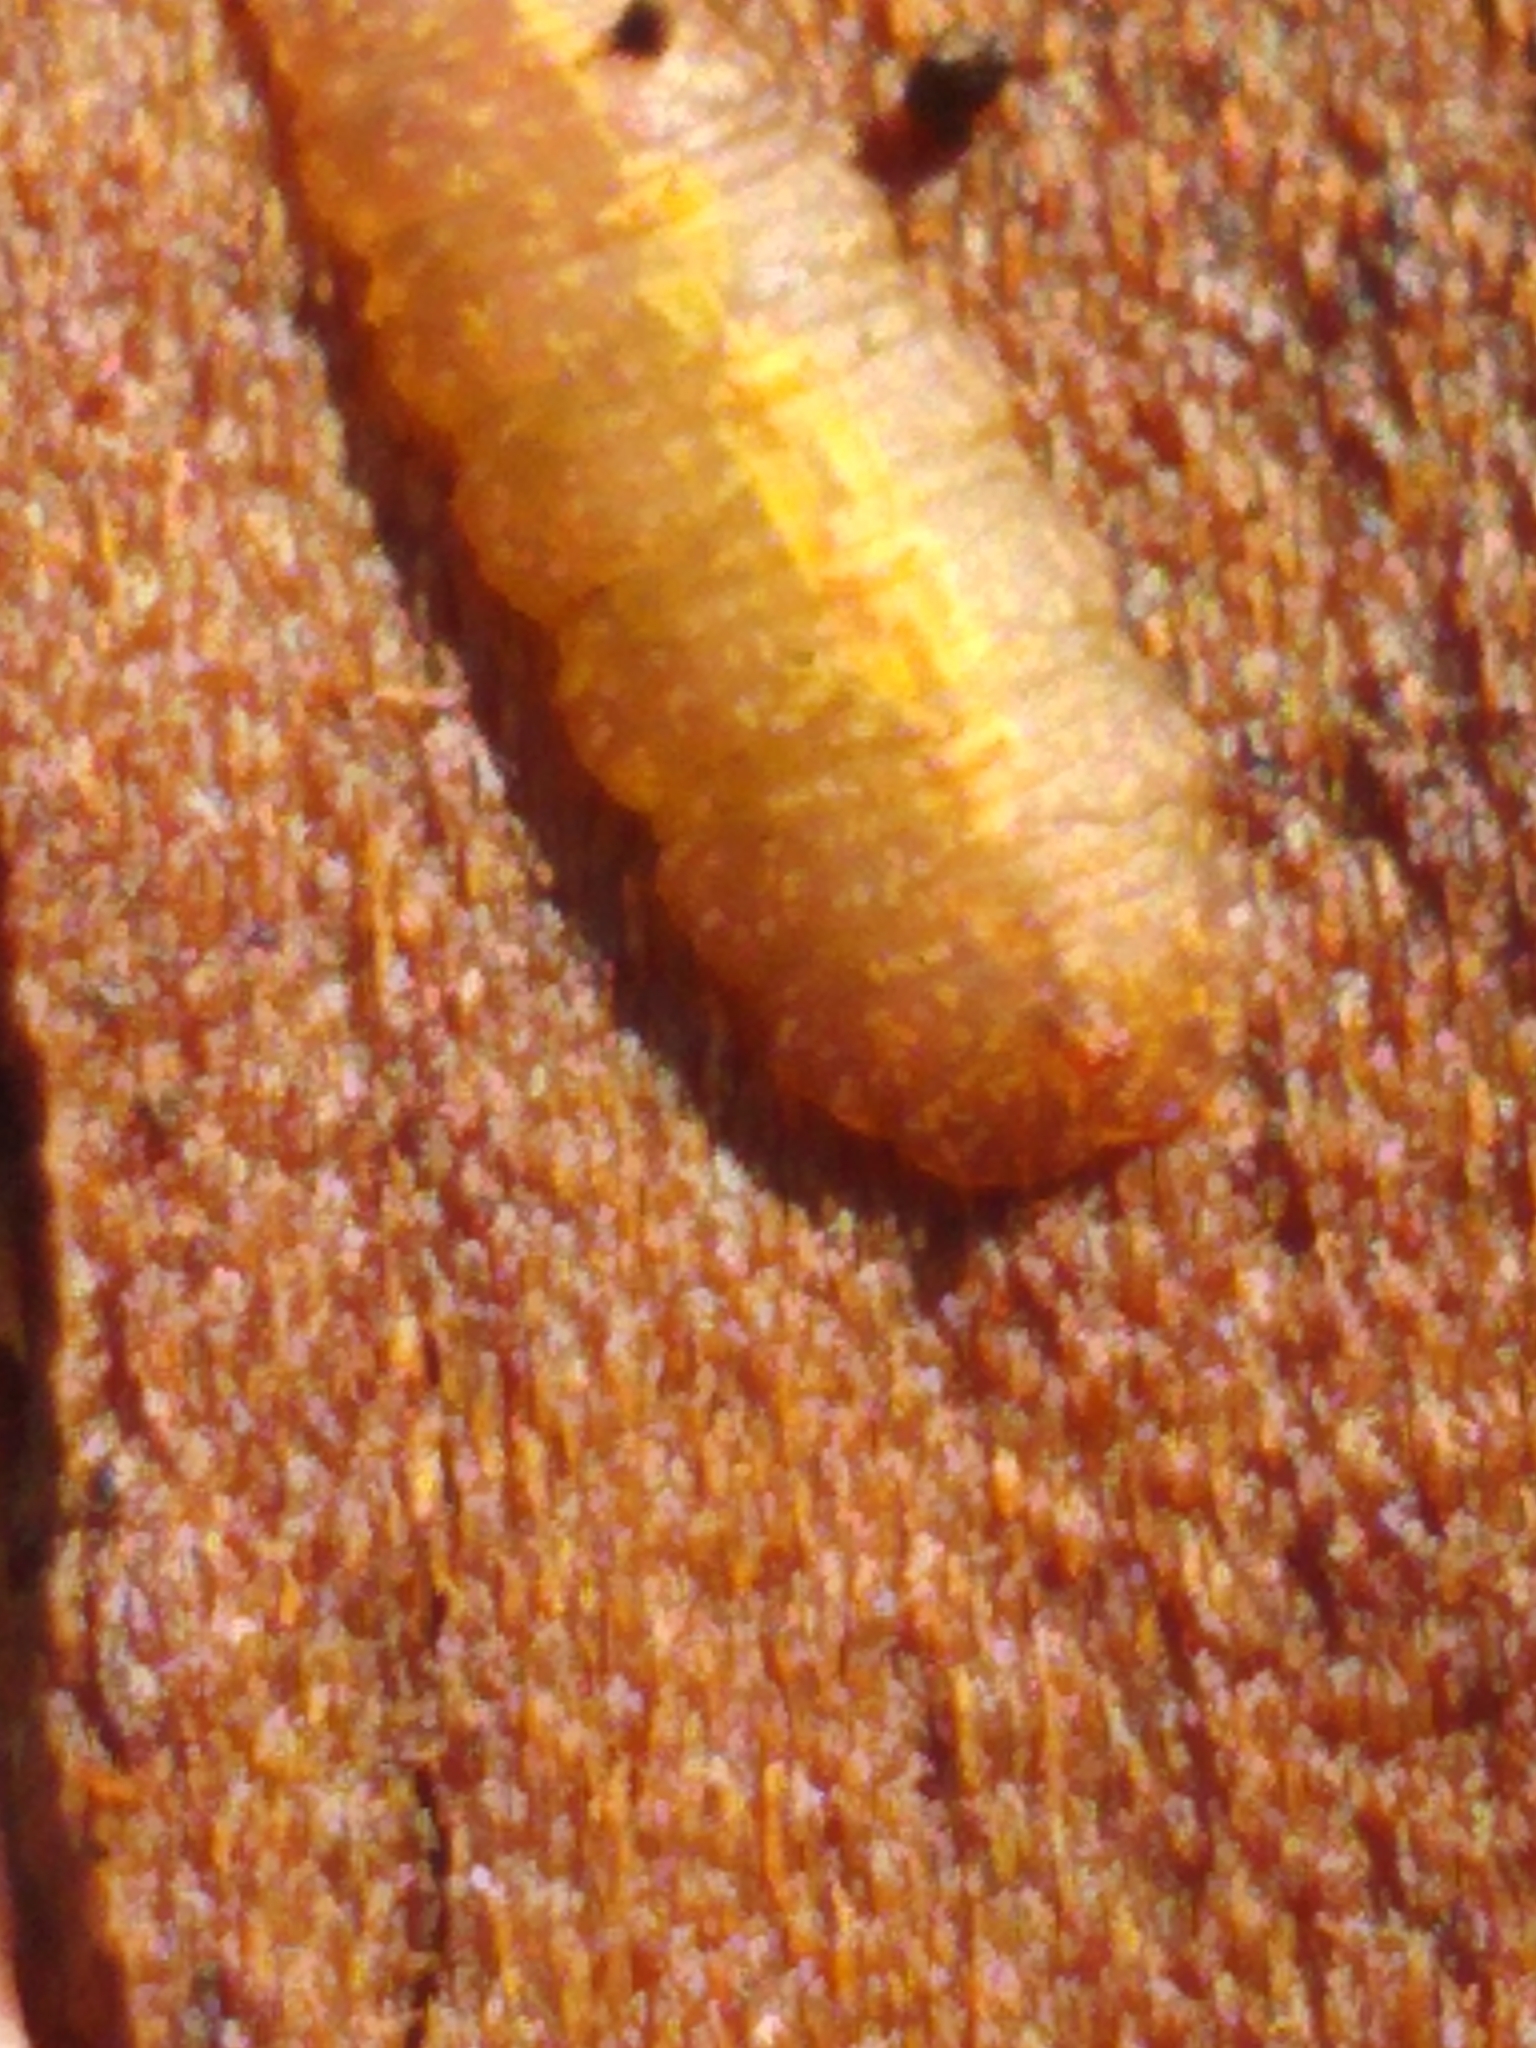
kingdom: Animalia
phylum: Arthropoda
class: Insecta
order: Diptera
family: Syrphidae
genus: Epistrophe
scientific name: Epistrophe
